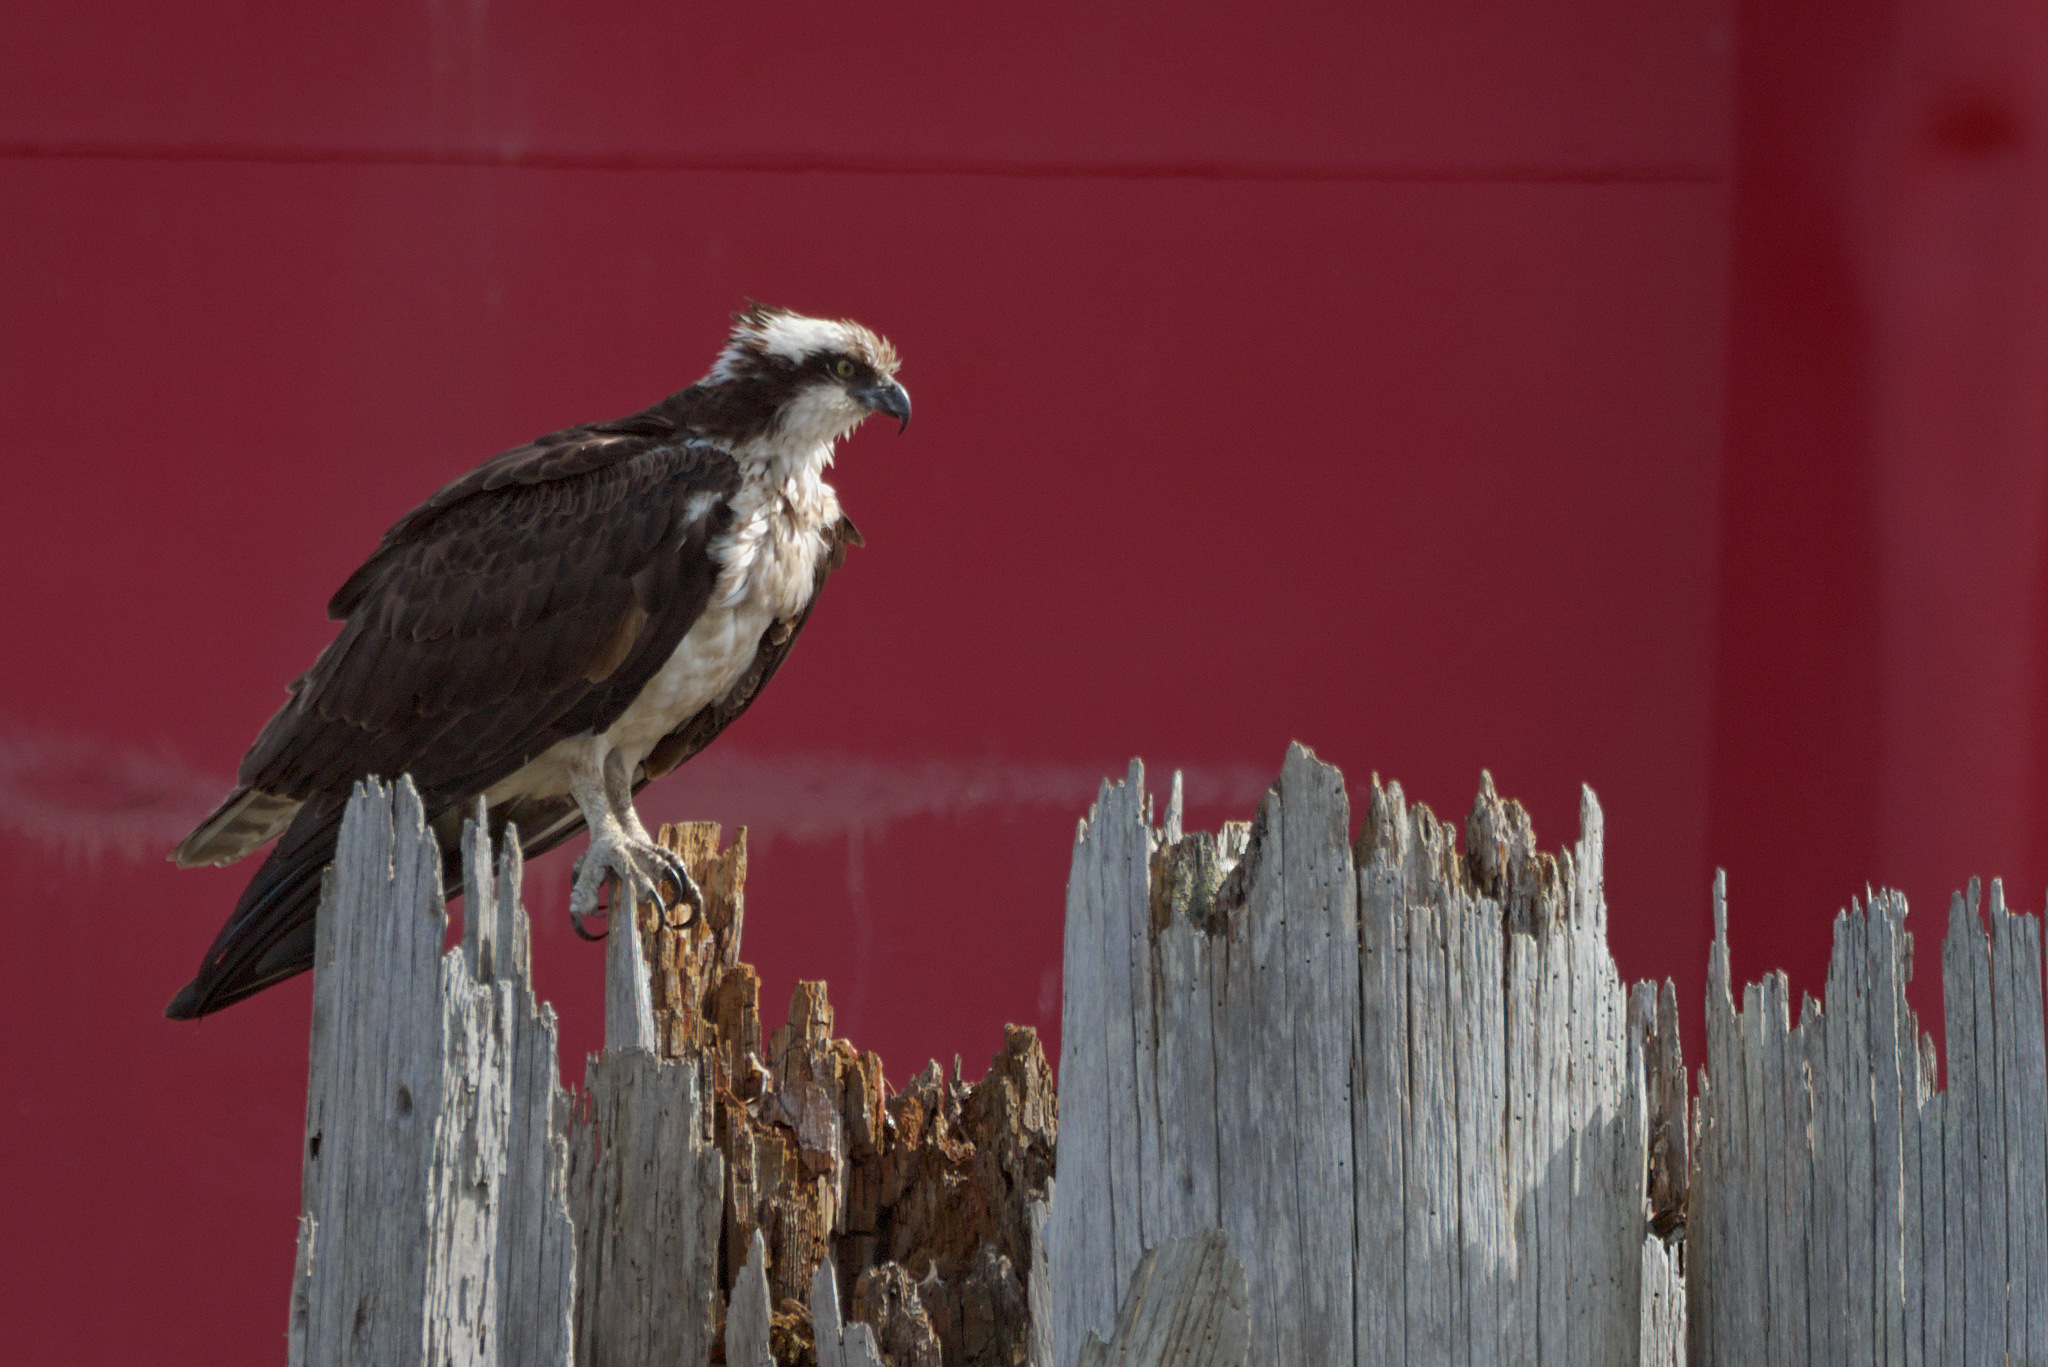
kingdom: Animalia
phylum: Chordata
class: Aves
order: Accipitriformes
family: Pandionidae
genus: Pandion
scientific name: Pandion haliaetus
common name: Osprey
